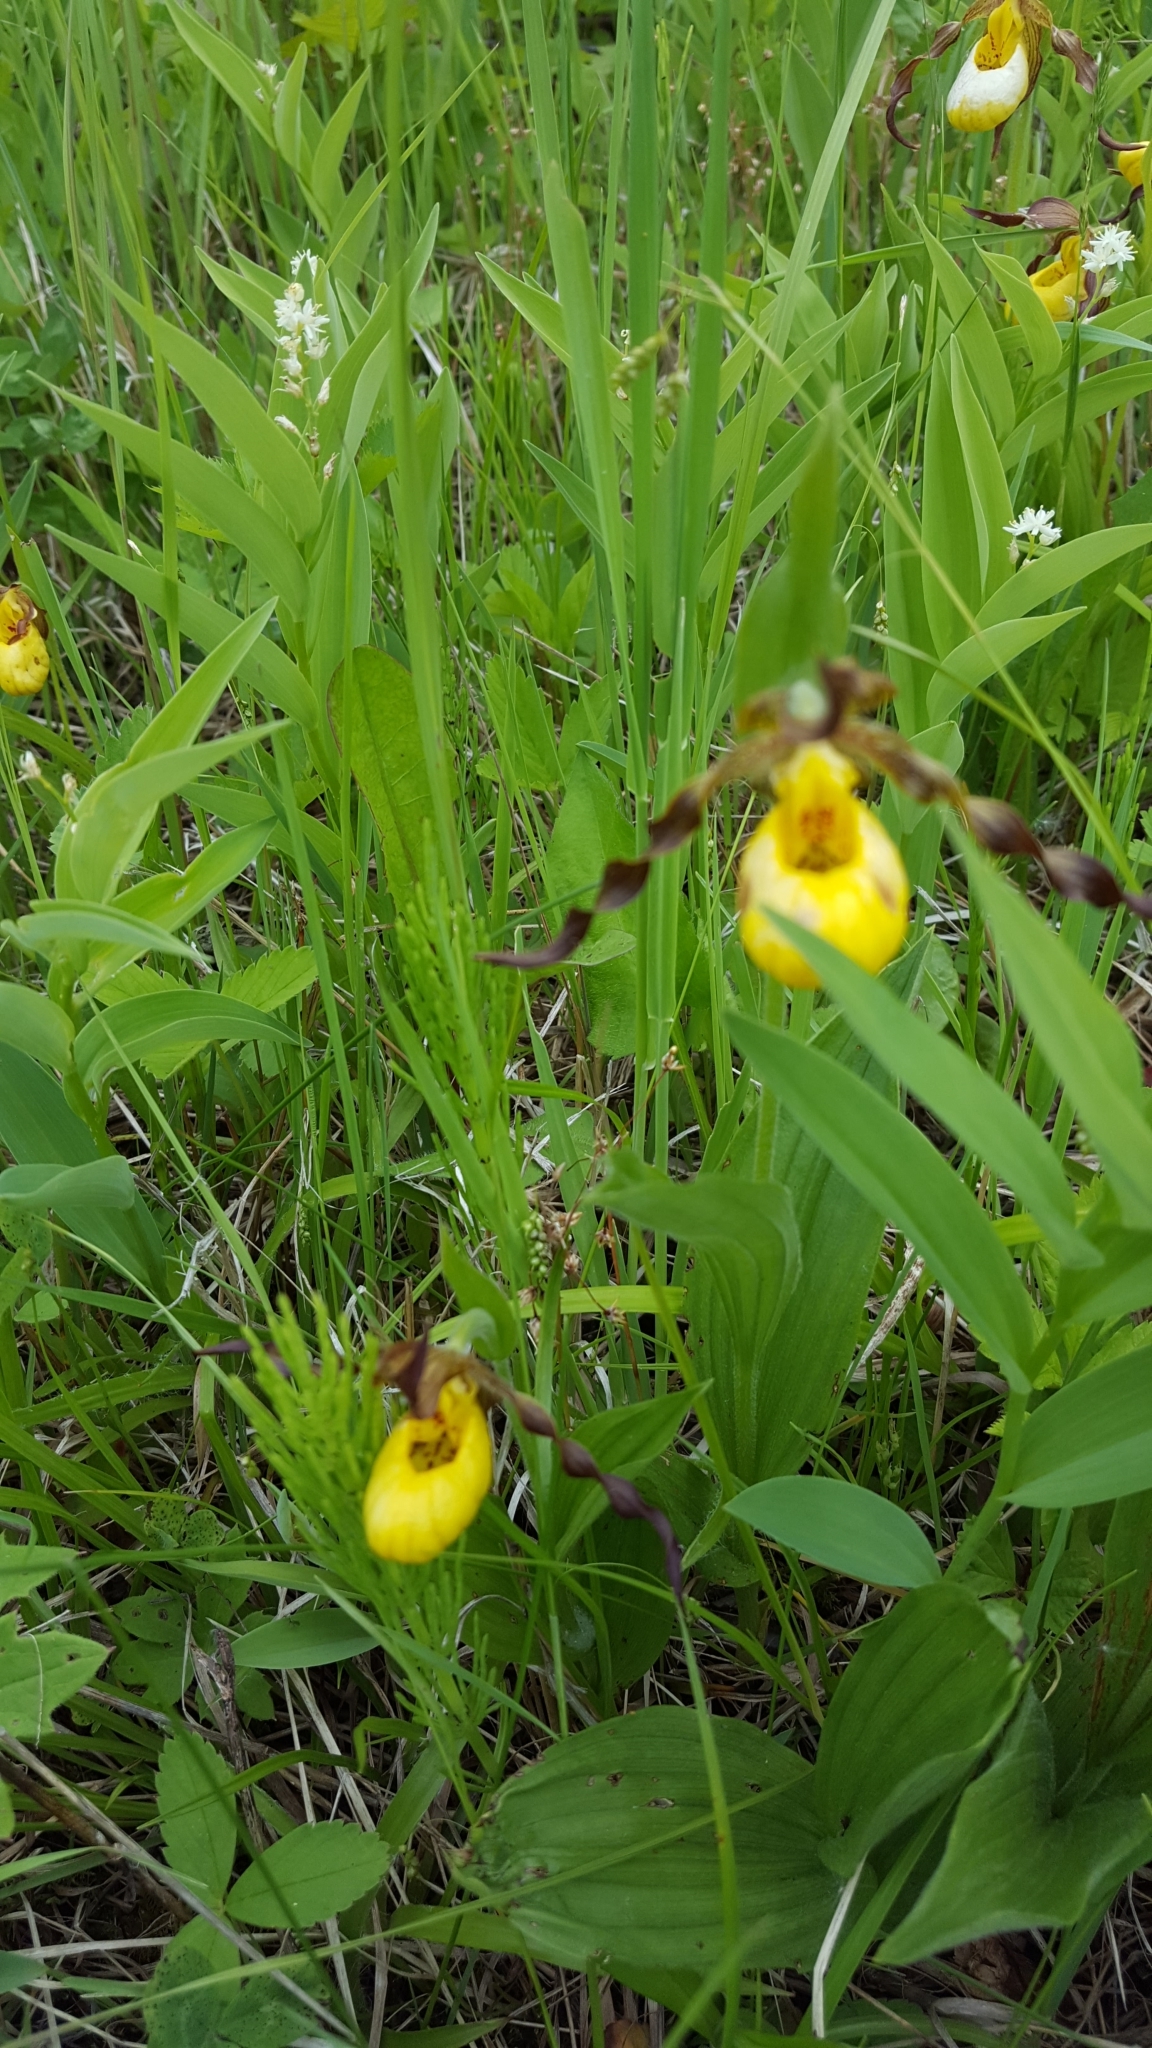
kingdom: Plantae
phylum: Tracheophyta
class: Liliopsida
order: Asparagales
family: Orchidaceae
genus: Cypripedium
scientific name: Cypripedium parviflorum
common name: American yellow lady's-slipper
